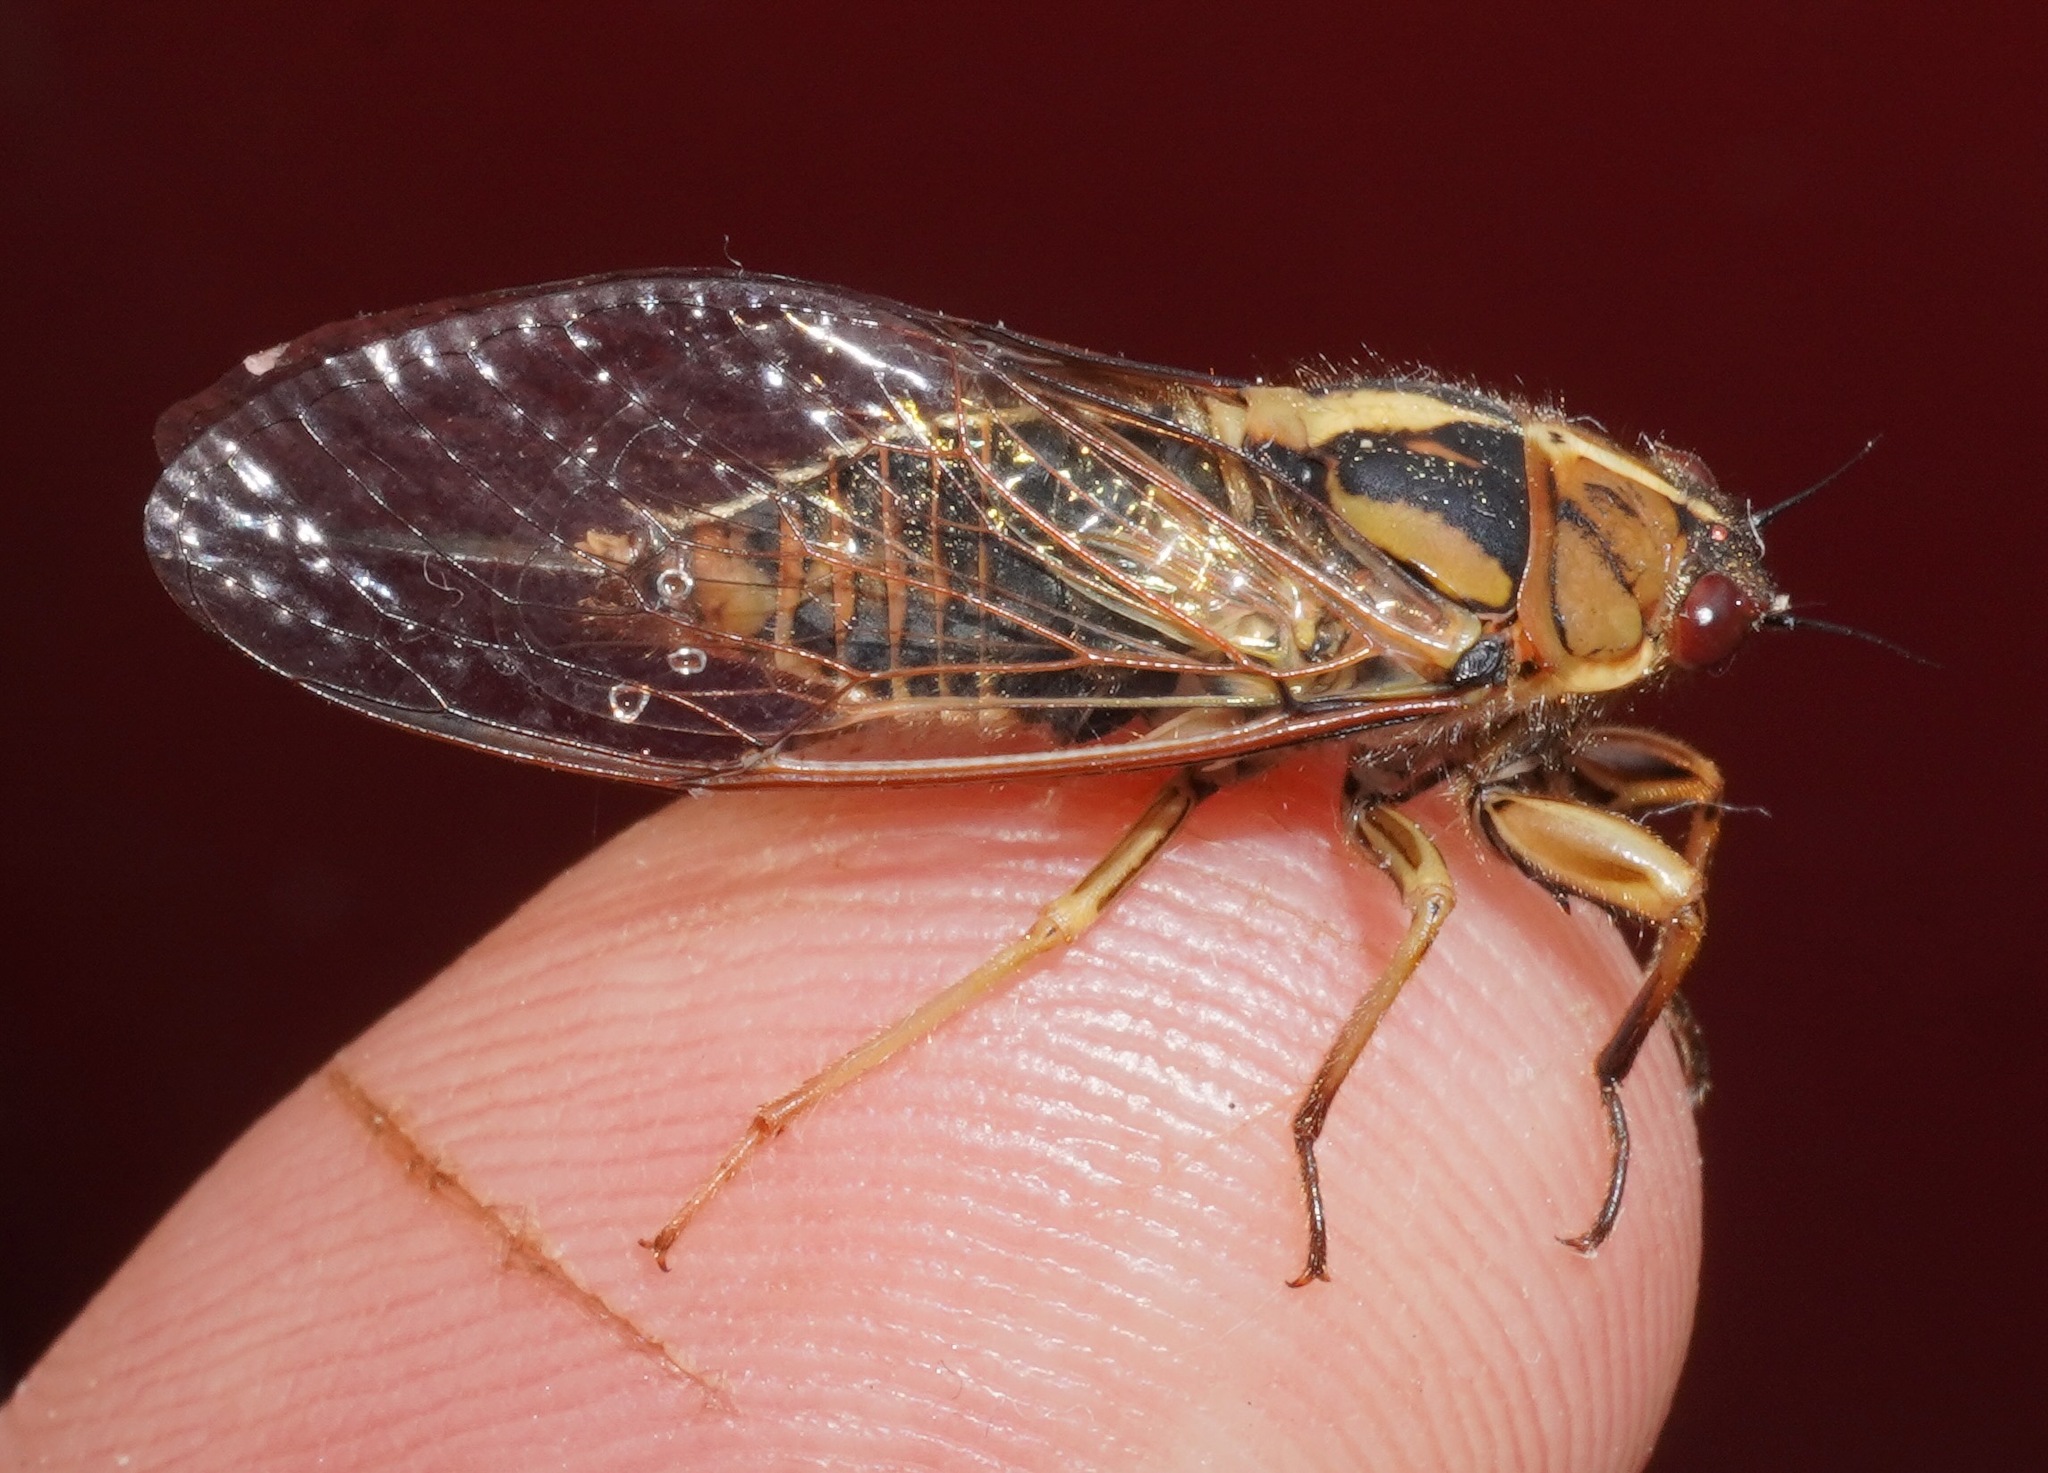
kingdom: Animalia
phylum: Arthropoda
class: Insecta
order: Hemiptera
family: Cicadidae
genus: Kikihia
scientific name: Kikihia muta
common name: Variable cicada
